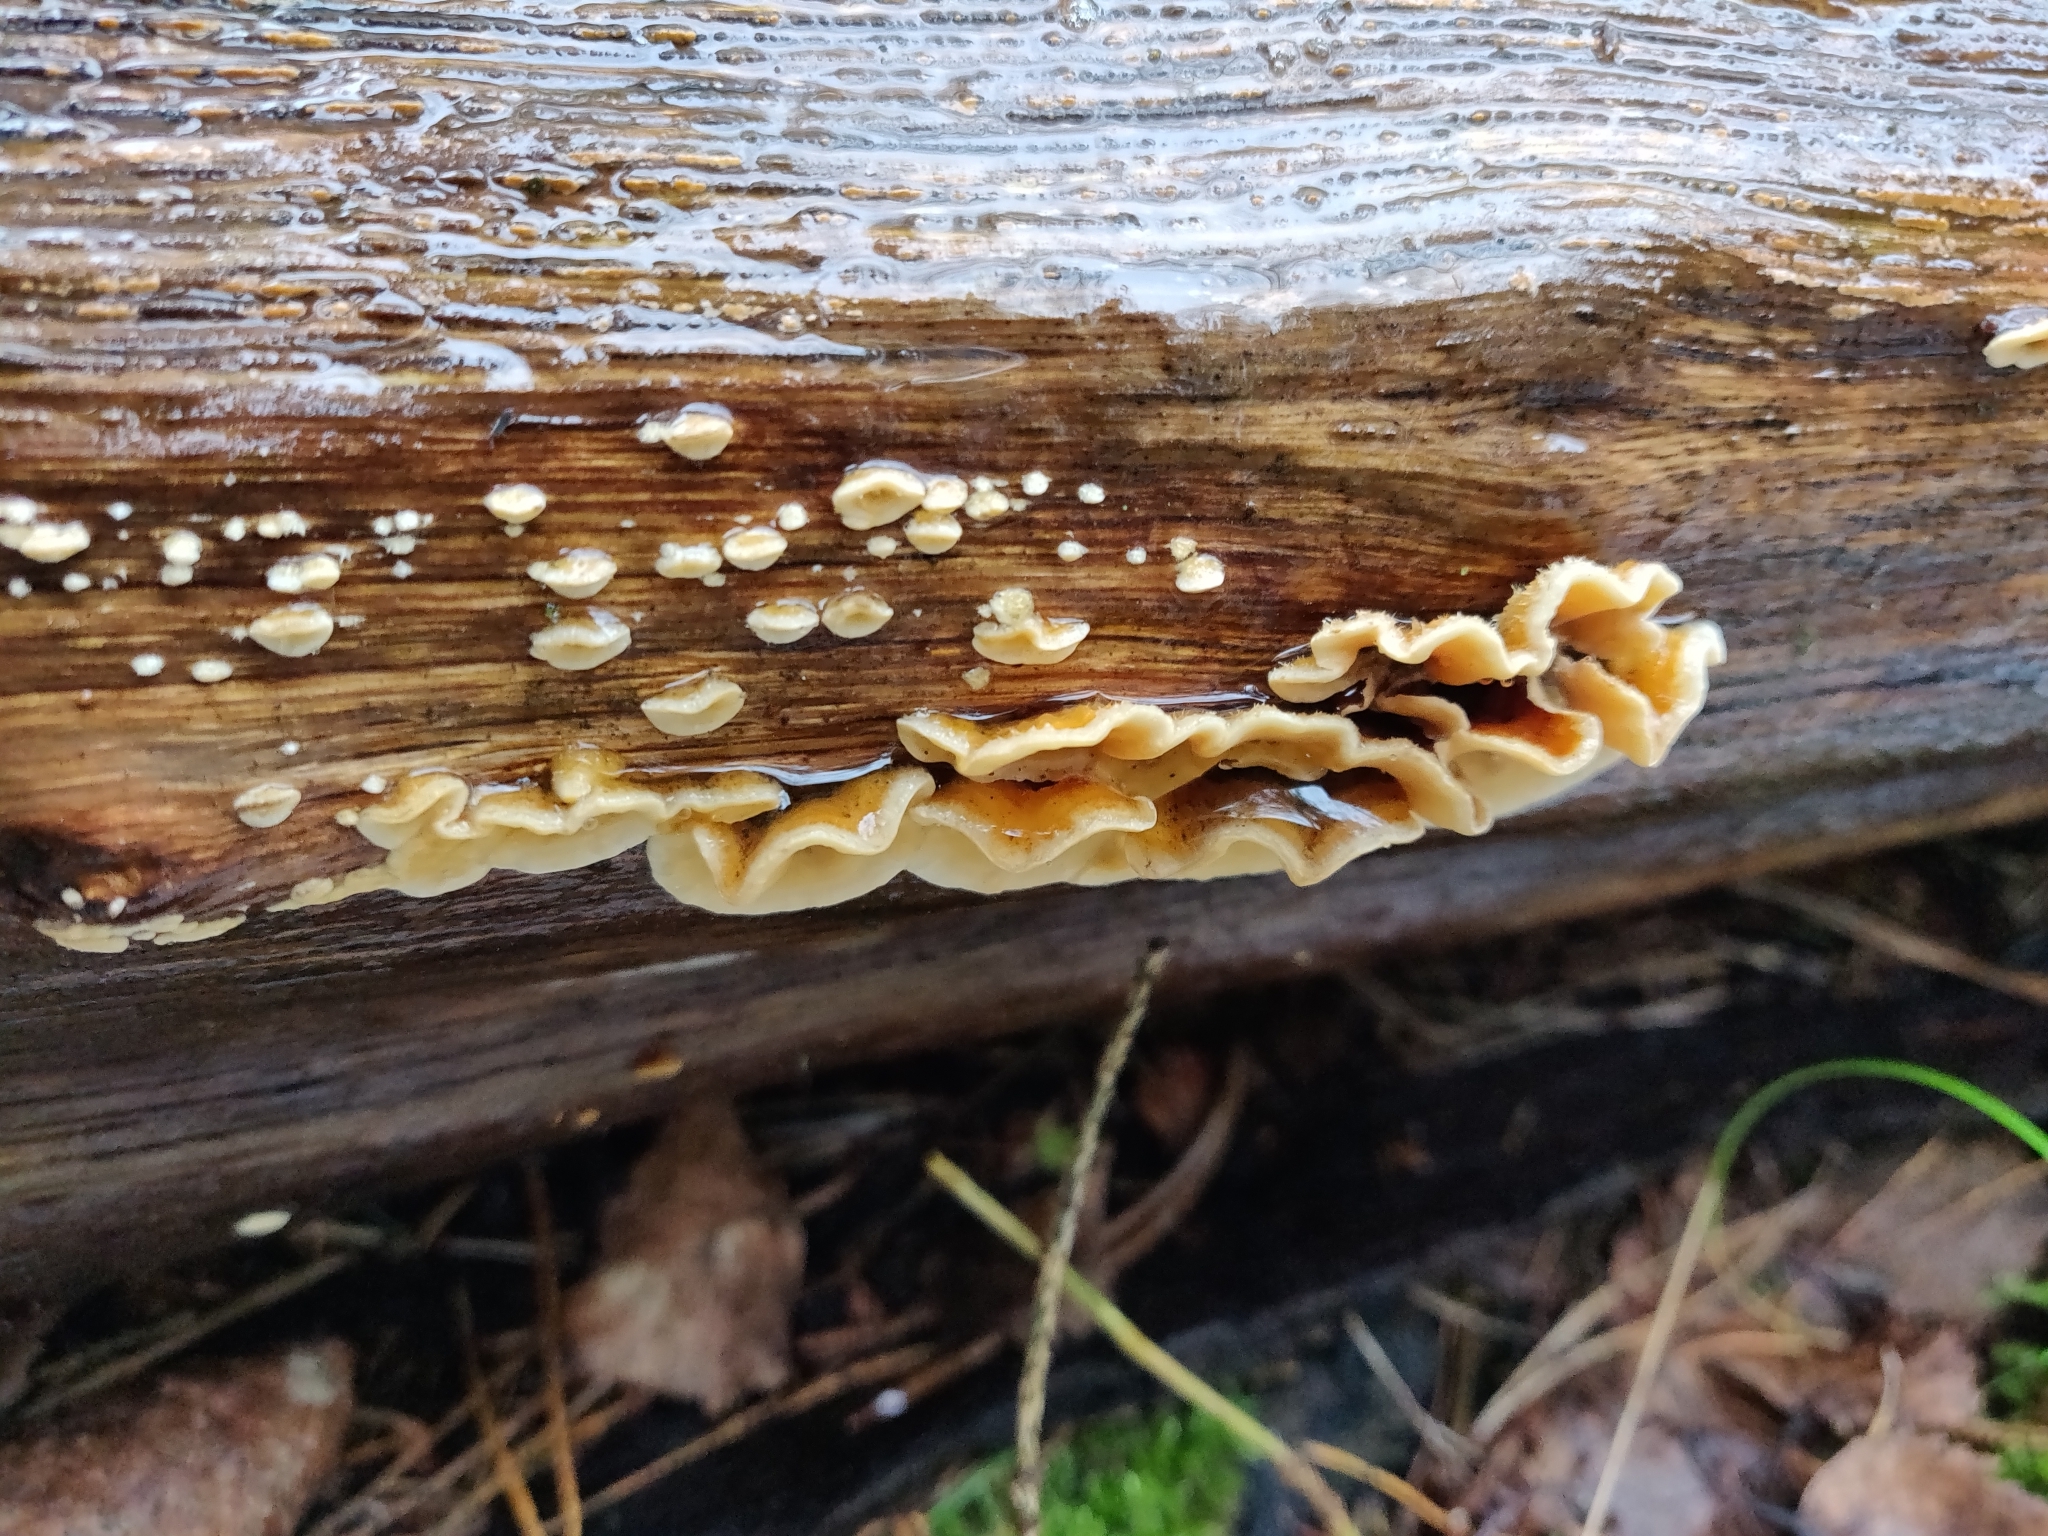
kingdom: Fungi
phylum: Basidiomycota
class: Agaricomycetes
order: Russulales
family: Stereaceae
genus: Stereum
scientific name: Stereum hirsutum
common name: Hairy curtain crust
